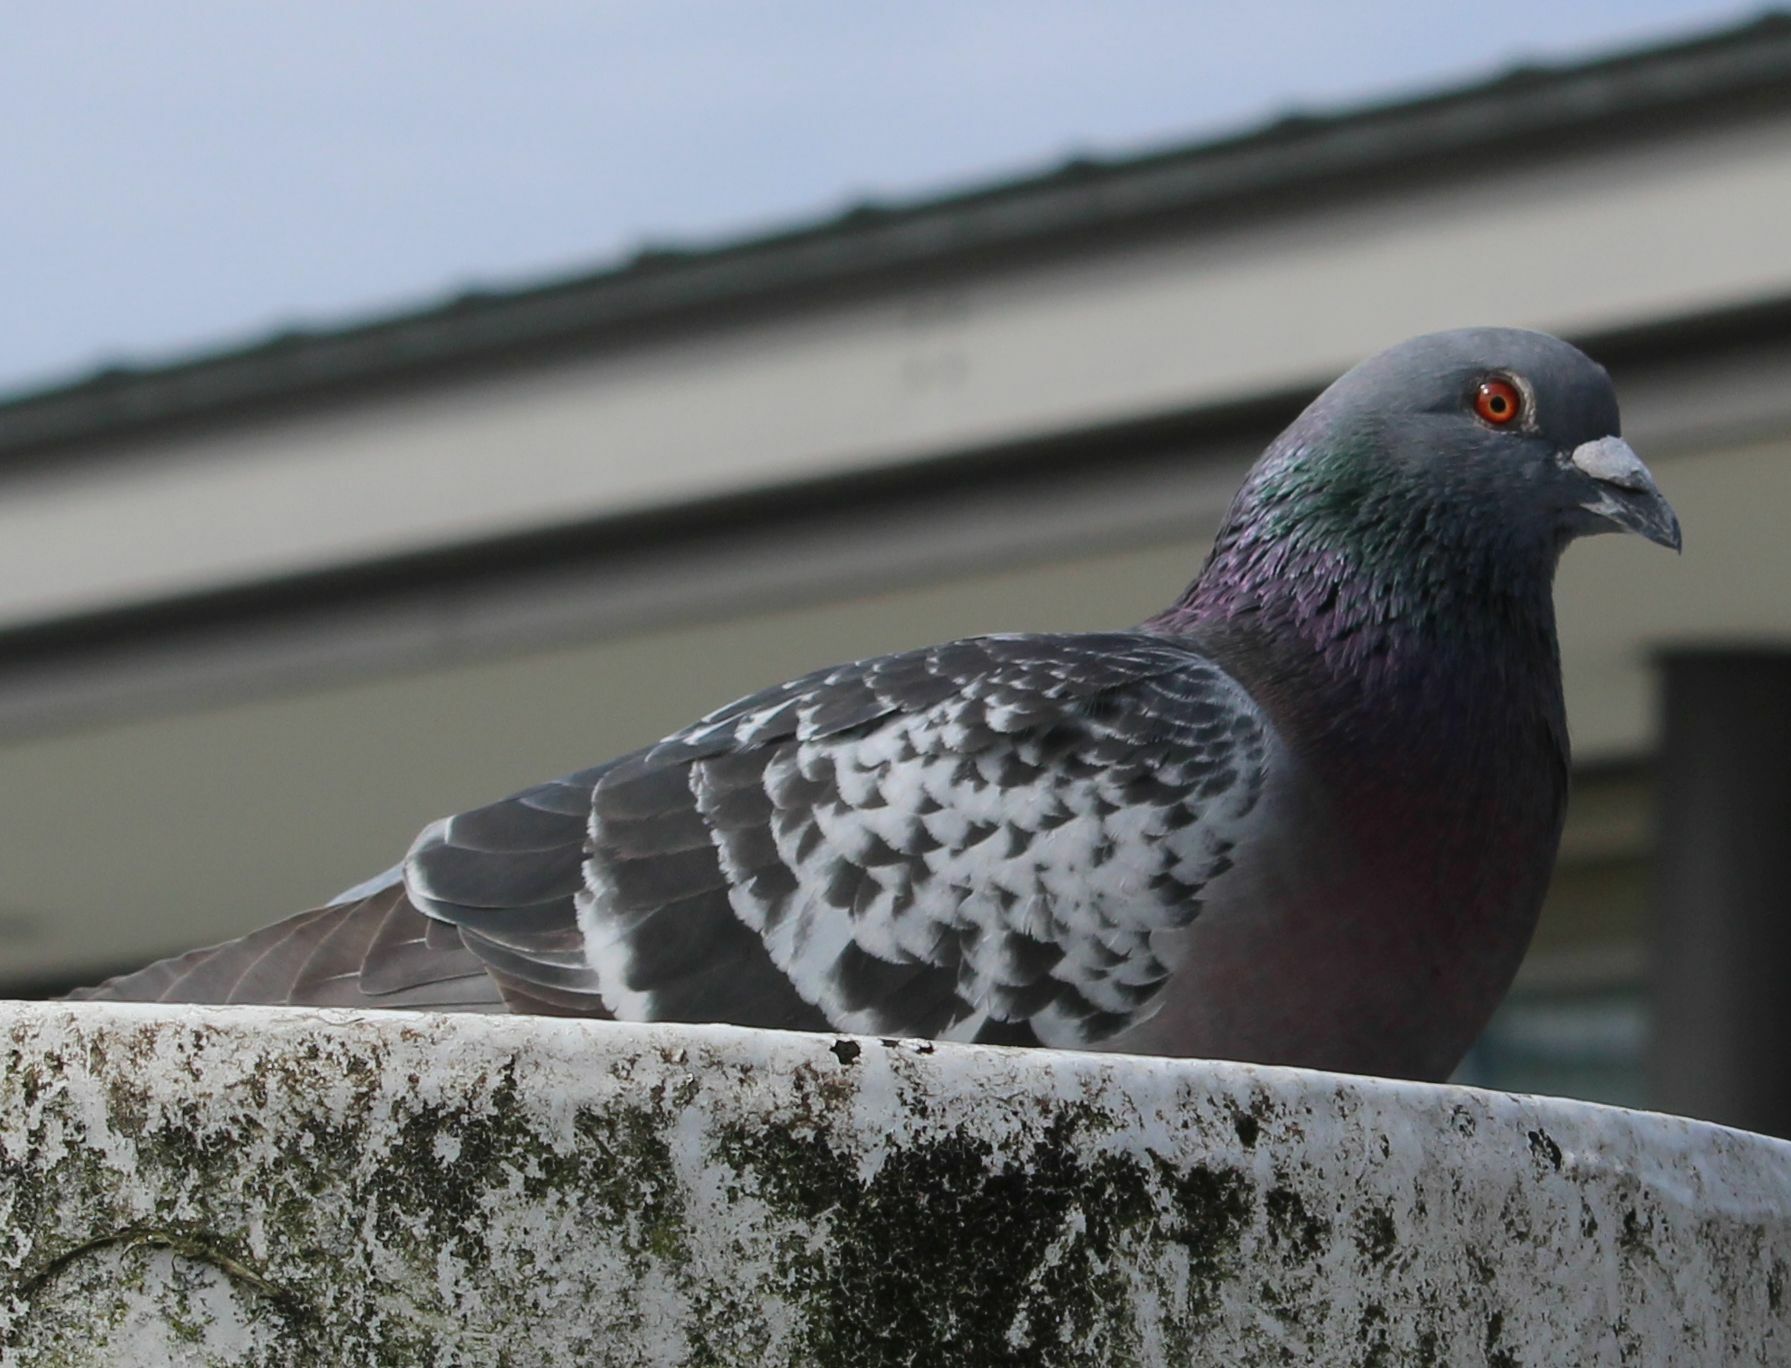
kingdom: Animalia
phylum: Chordata
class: Aves
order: Columbiformes
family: Columbidae
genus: Columba
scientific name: Columba livia
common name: Rock pigeon
